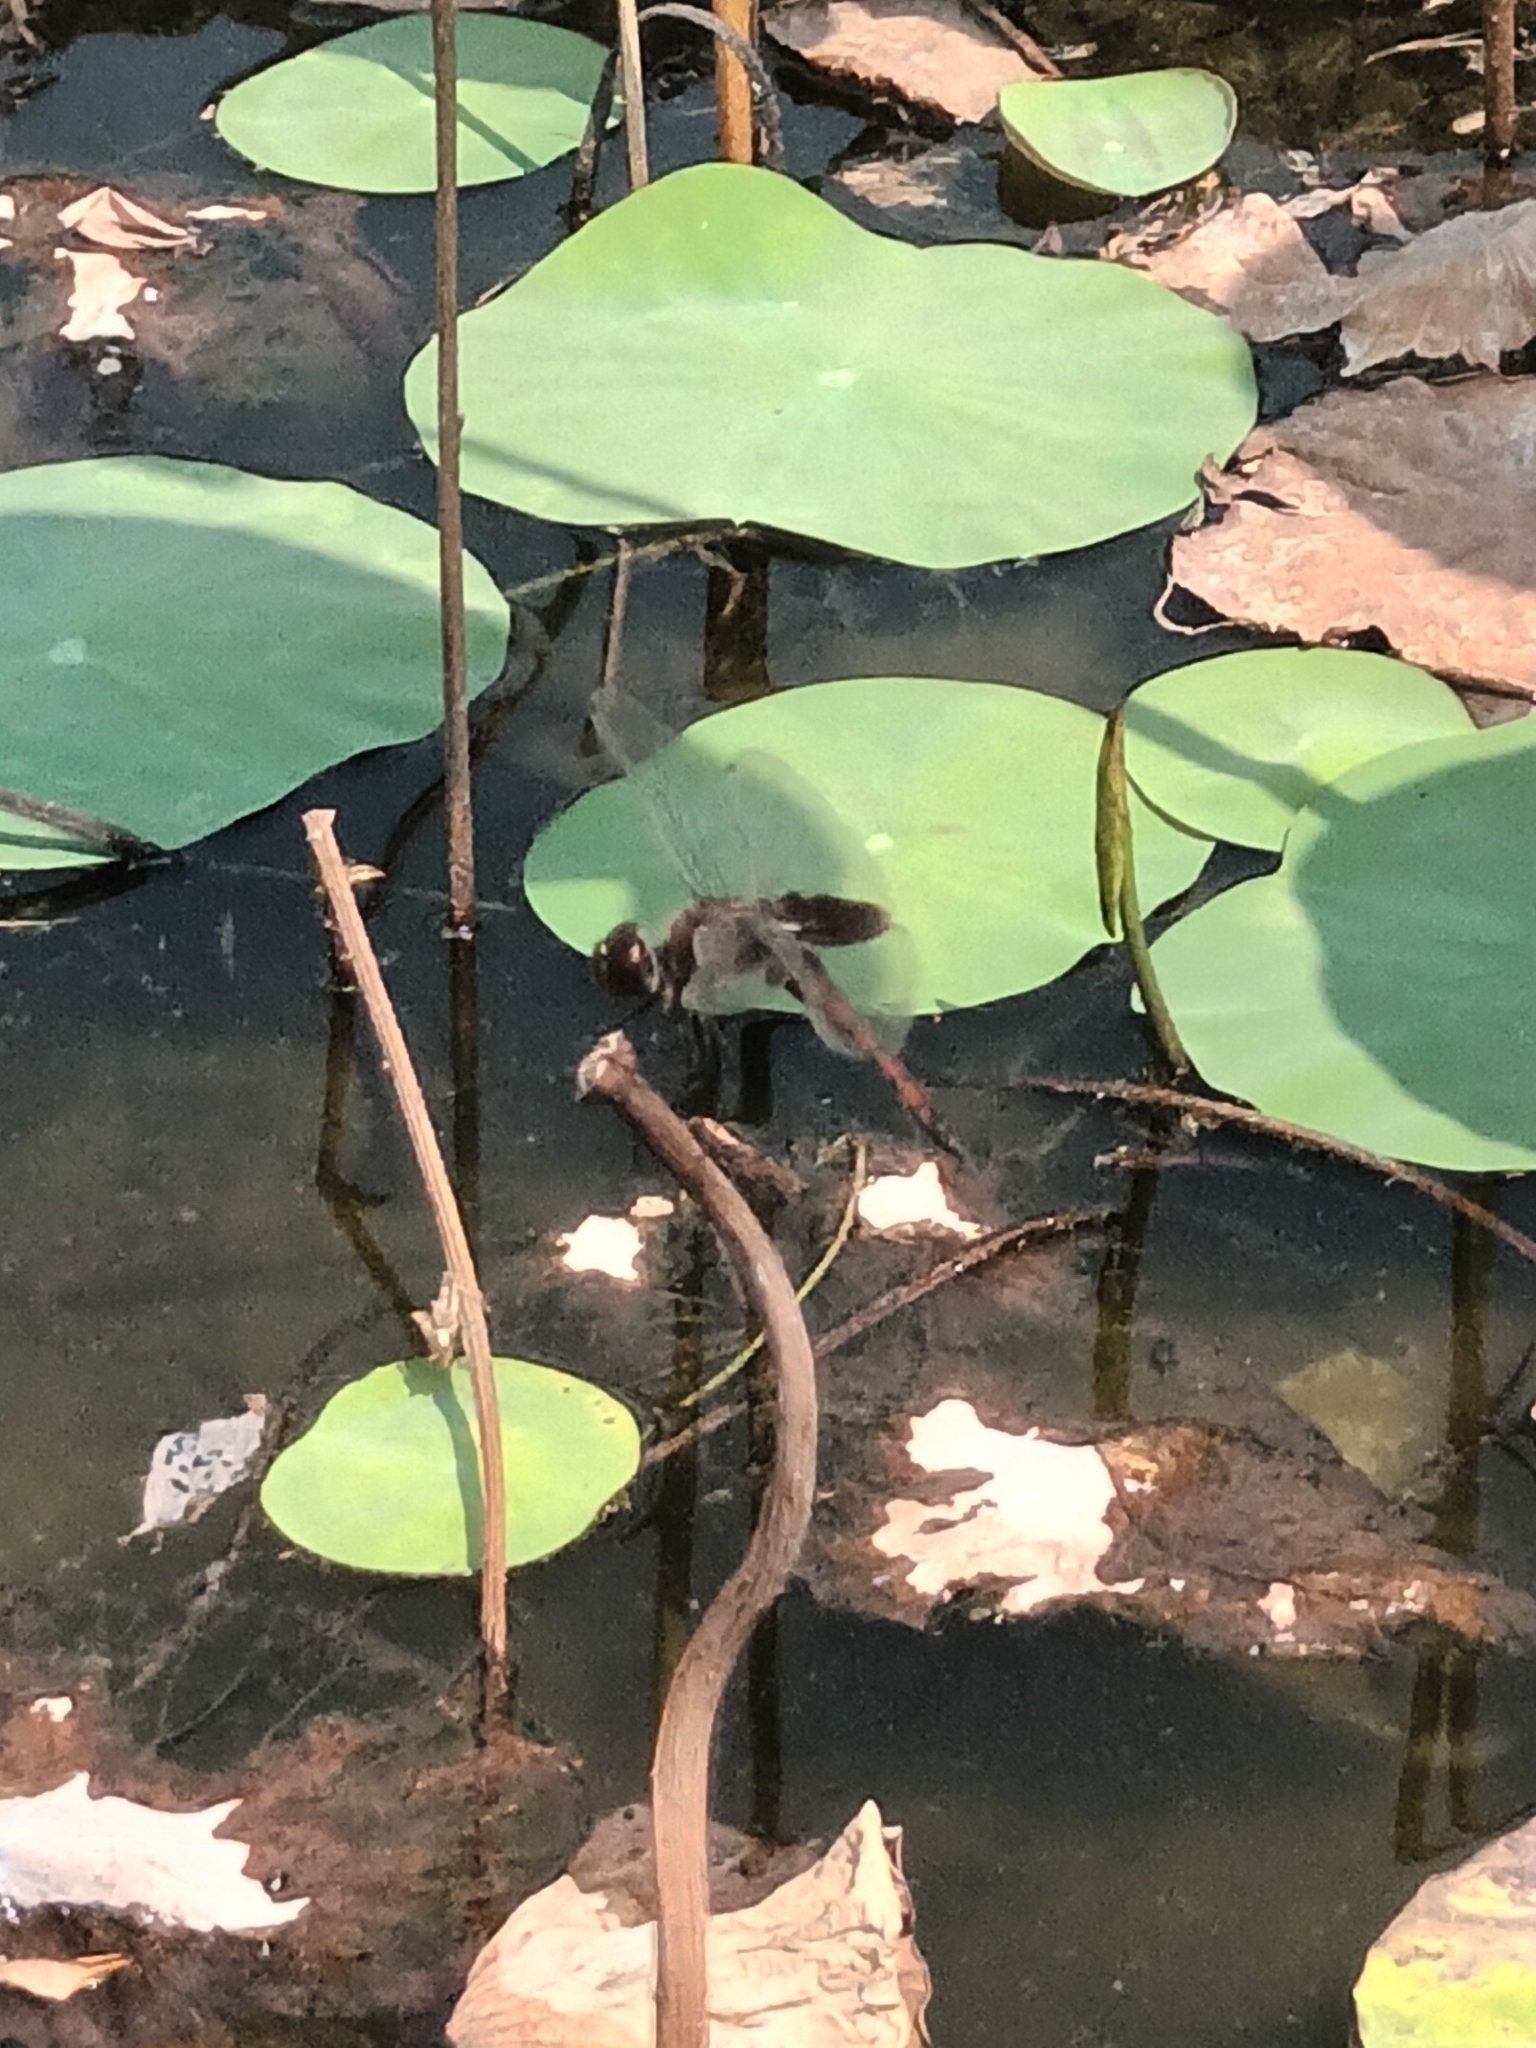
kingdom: Animalia
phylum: Arthropoda
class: Insecta
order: Odonata
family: Libellulidae
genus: Tramea
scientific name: Tramea limbata
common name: Ferruginous glider
